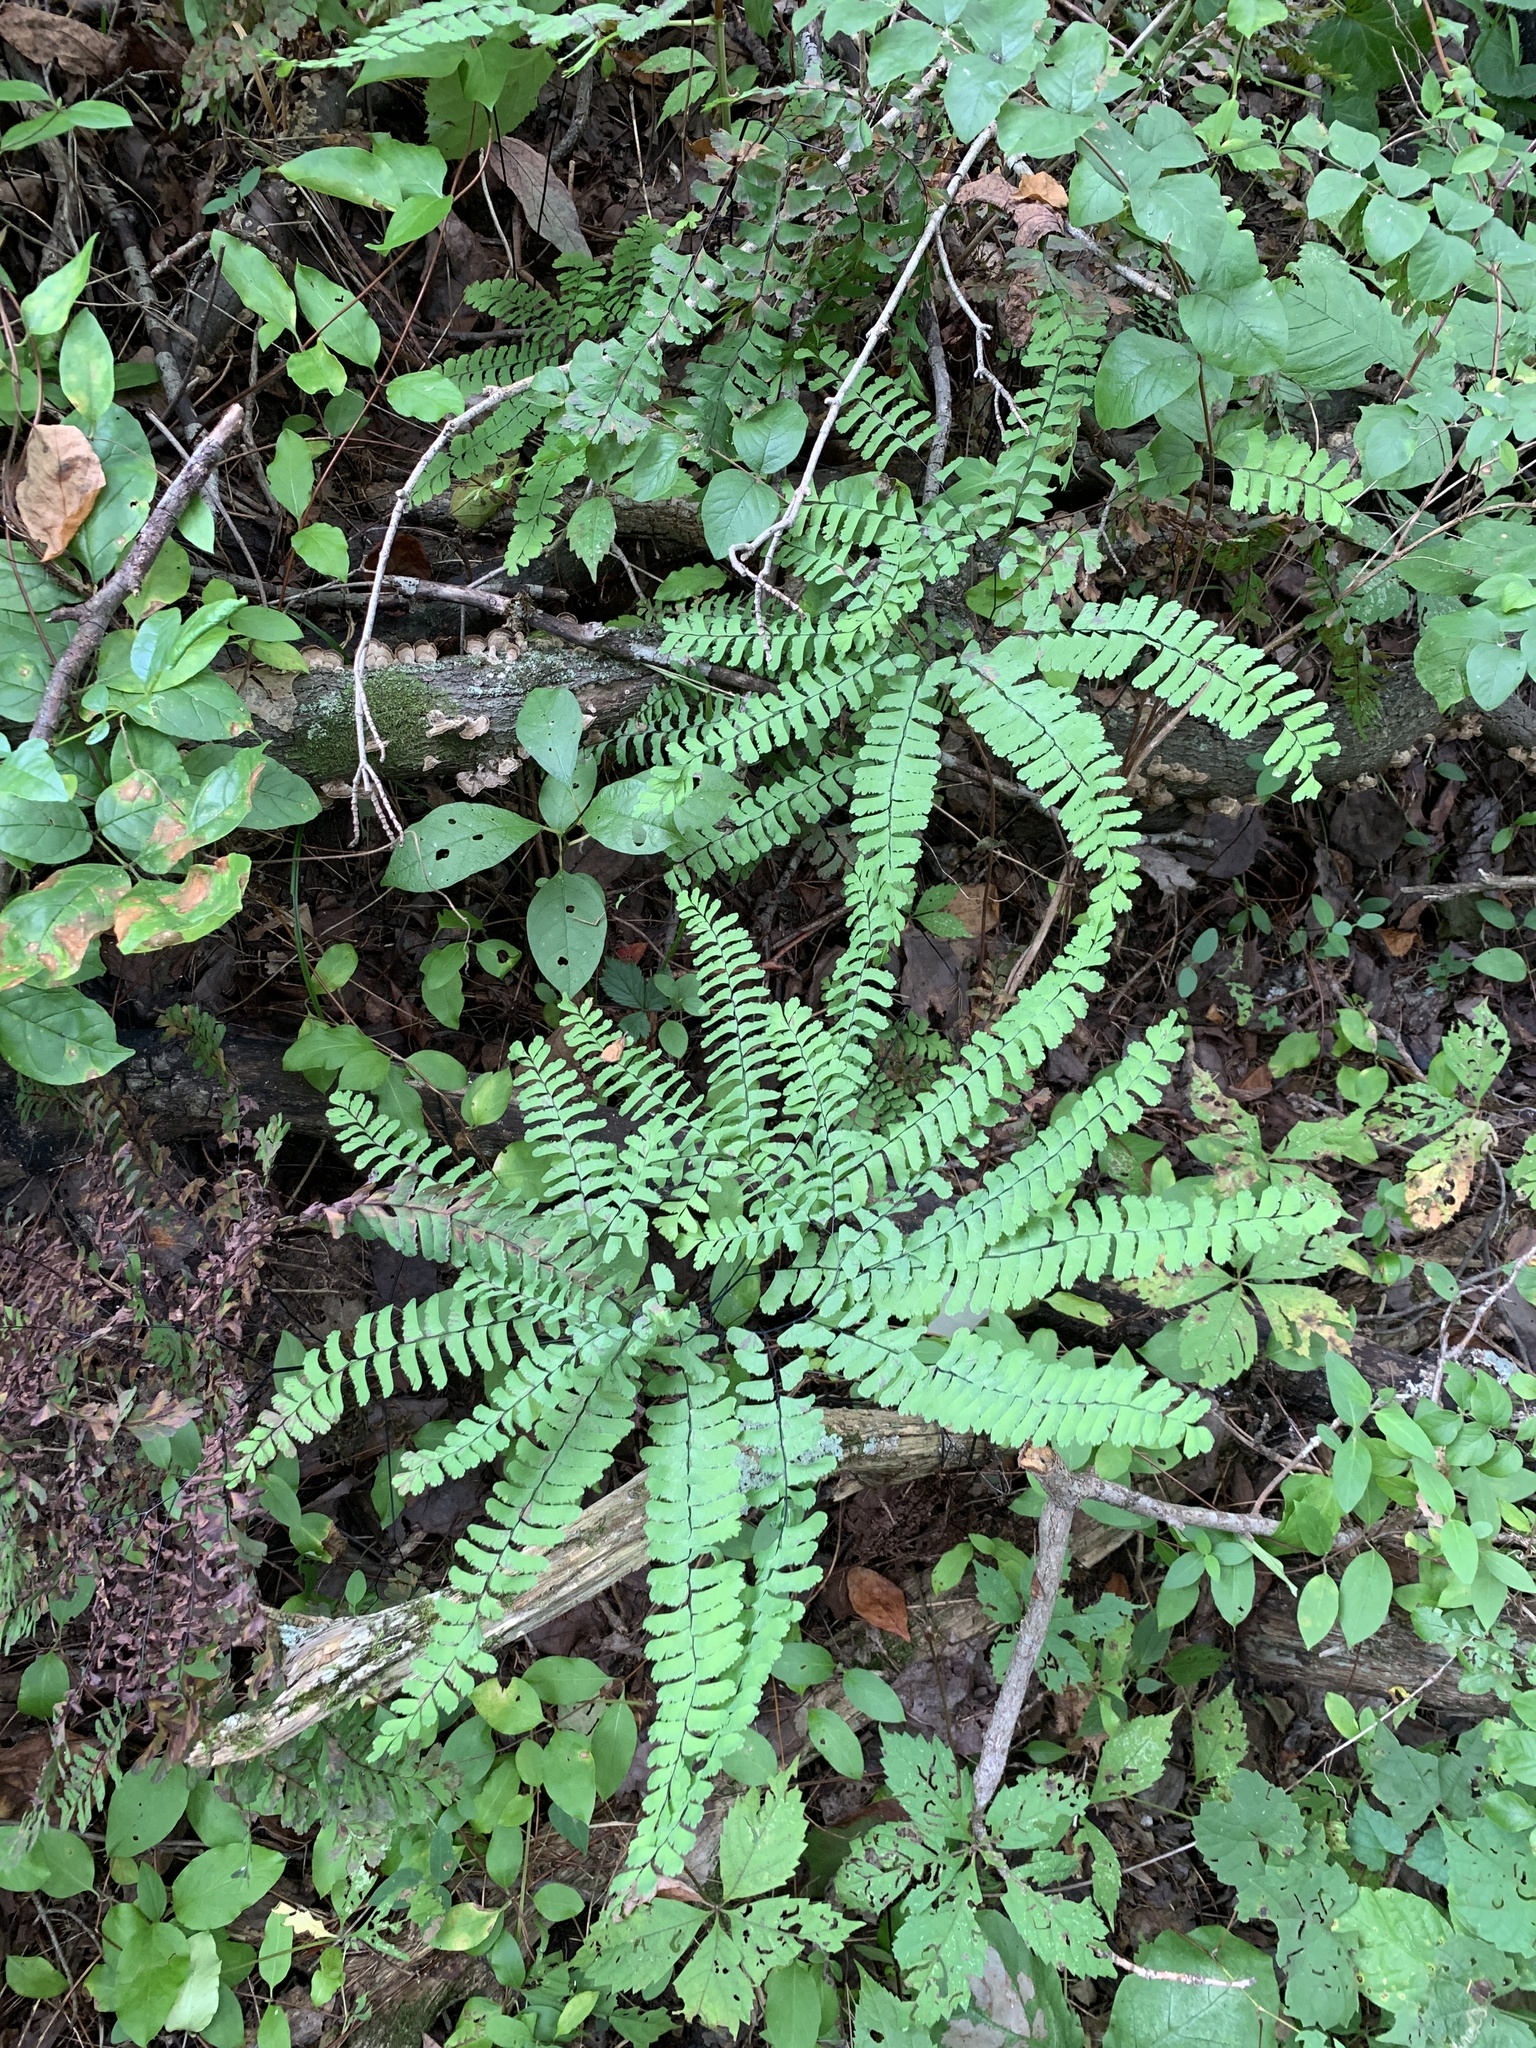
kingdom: Plantae
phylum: Tracheophyta
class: Polypodiopsida
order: Polypodiales
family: Pteridaceae
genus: Adiantum
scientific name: Adiantum pedatum
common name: Five-finger fern
